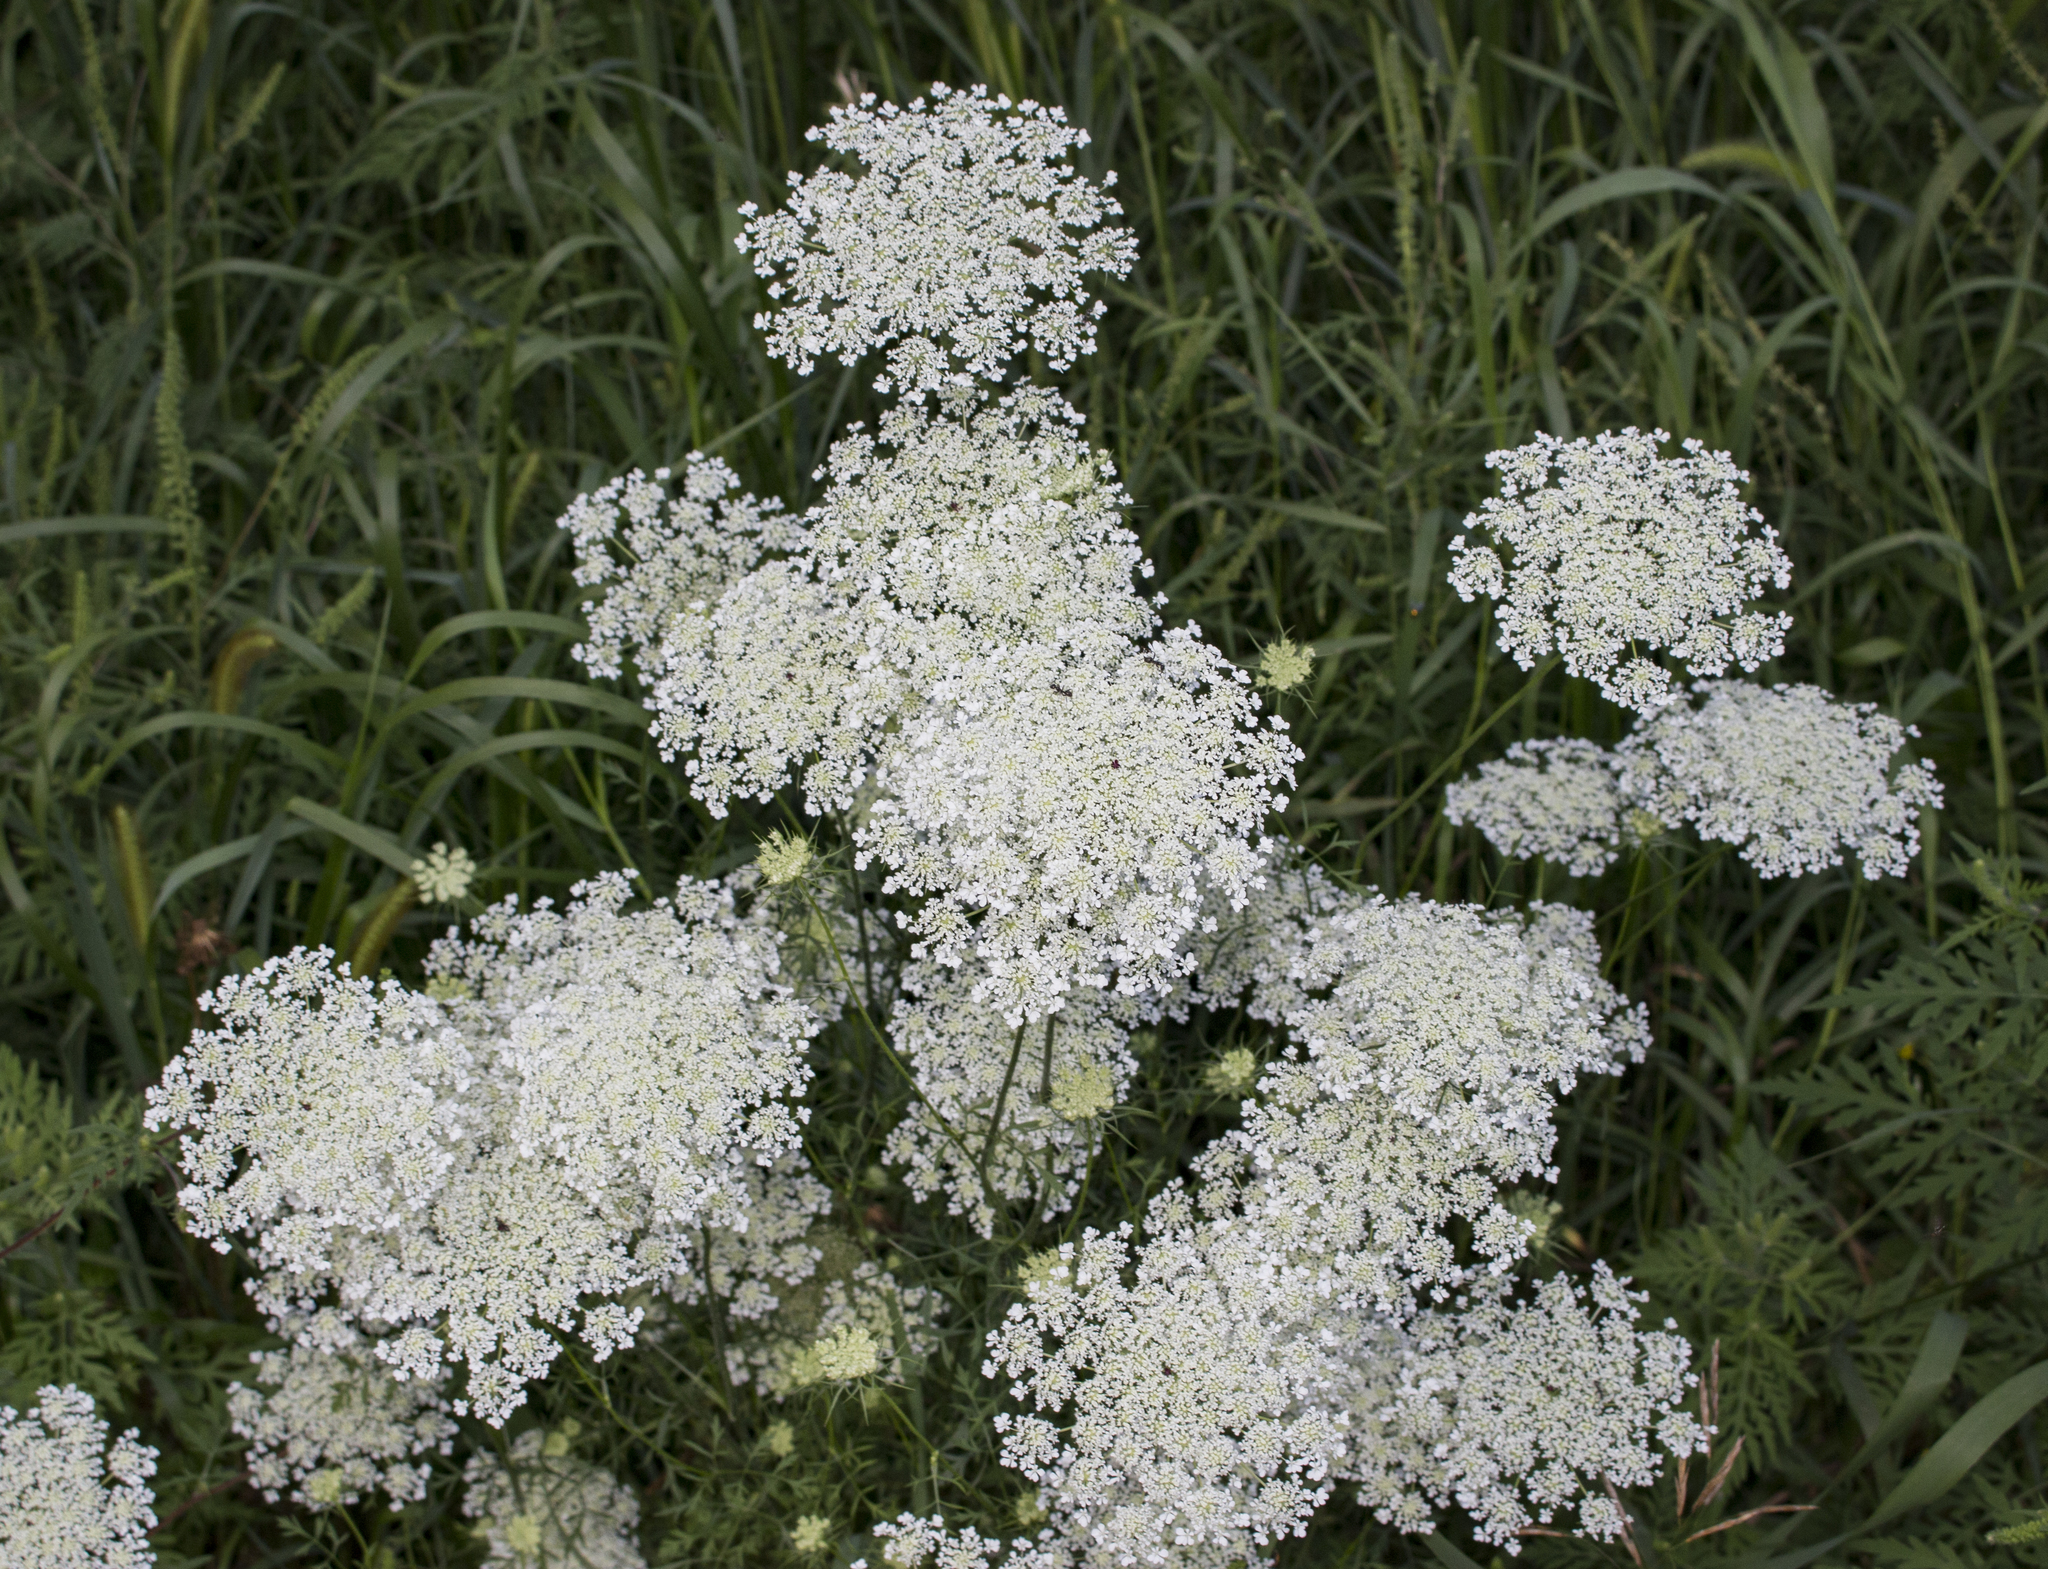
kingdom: Plantae
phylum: Tracheophyta
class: Magnoliopsida
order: Apiales
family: Apiaceae
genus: Daucus
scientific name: Daucus carota
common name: Wild carrot
